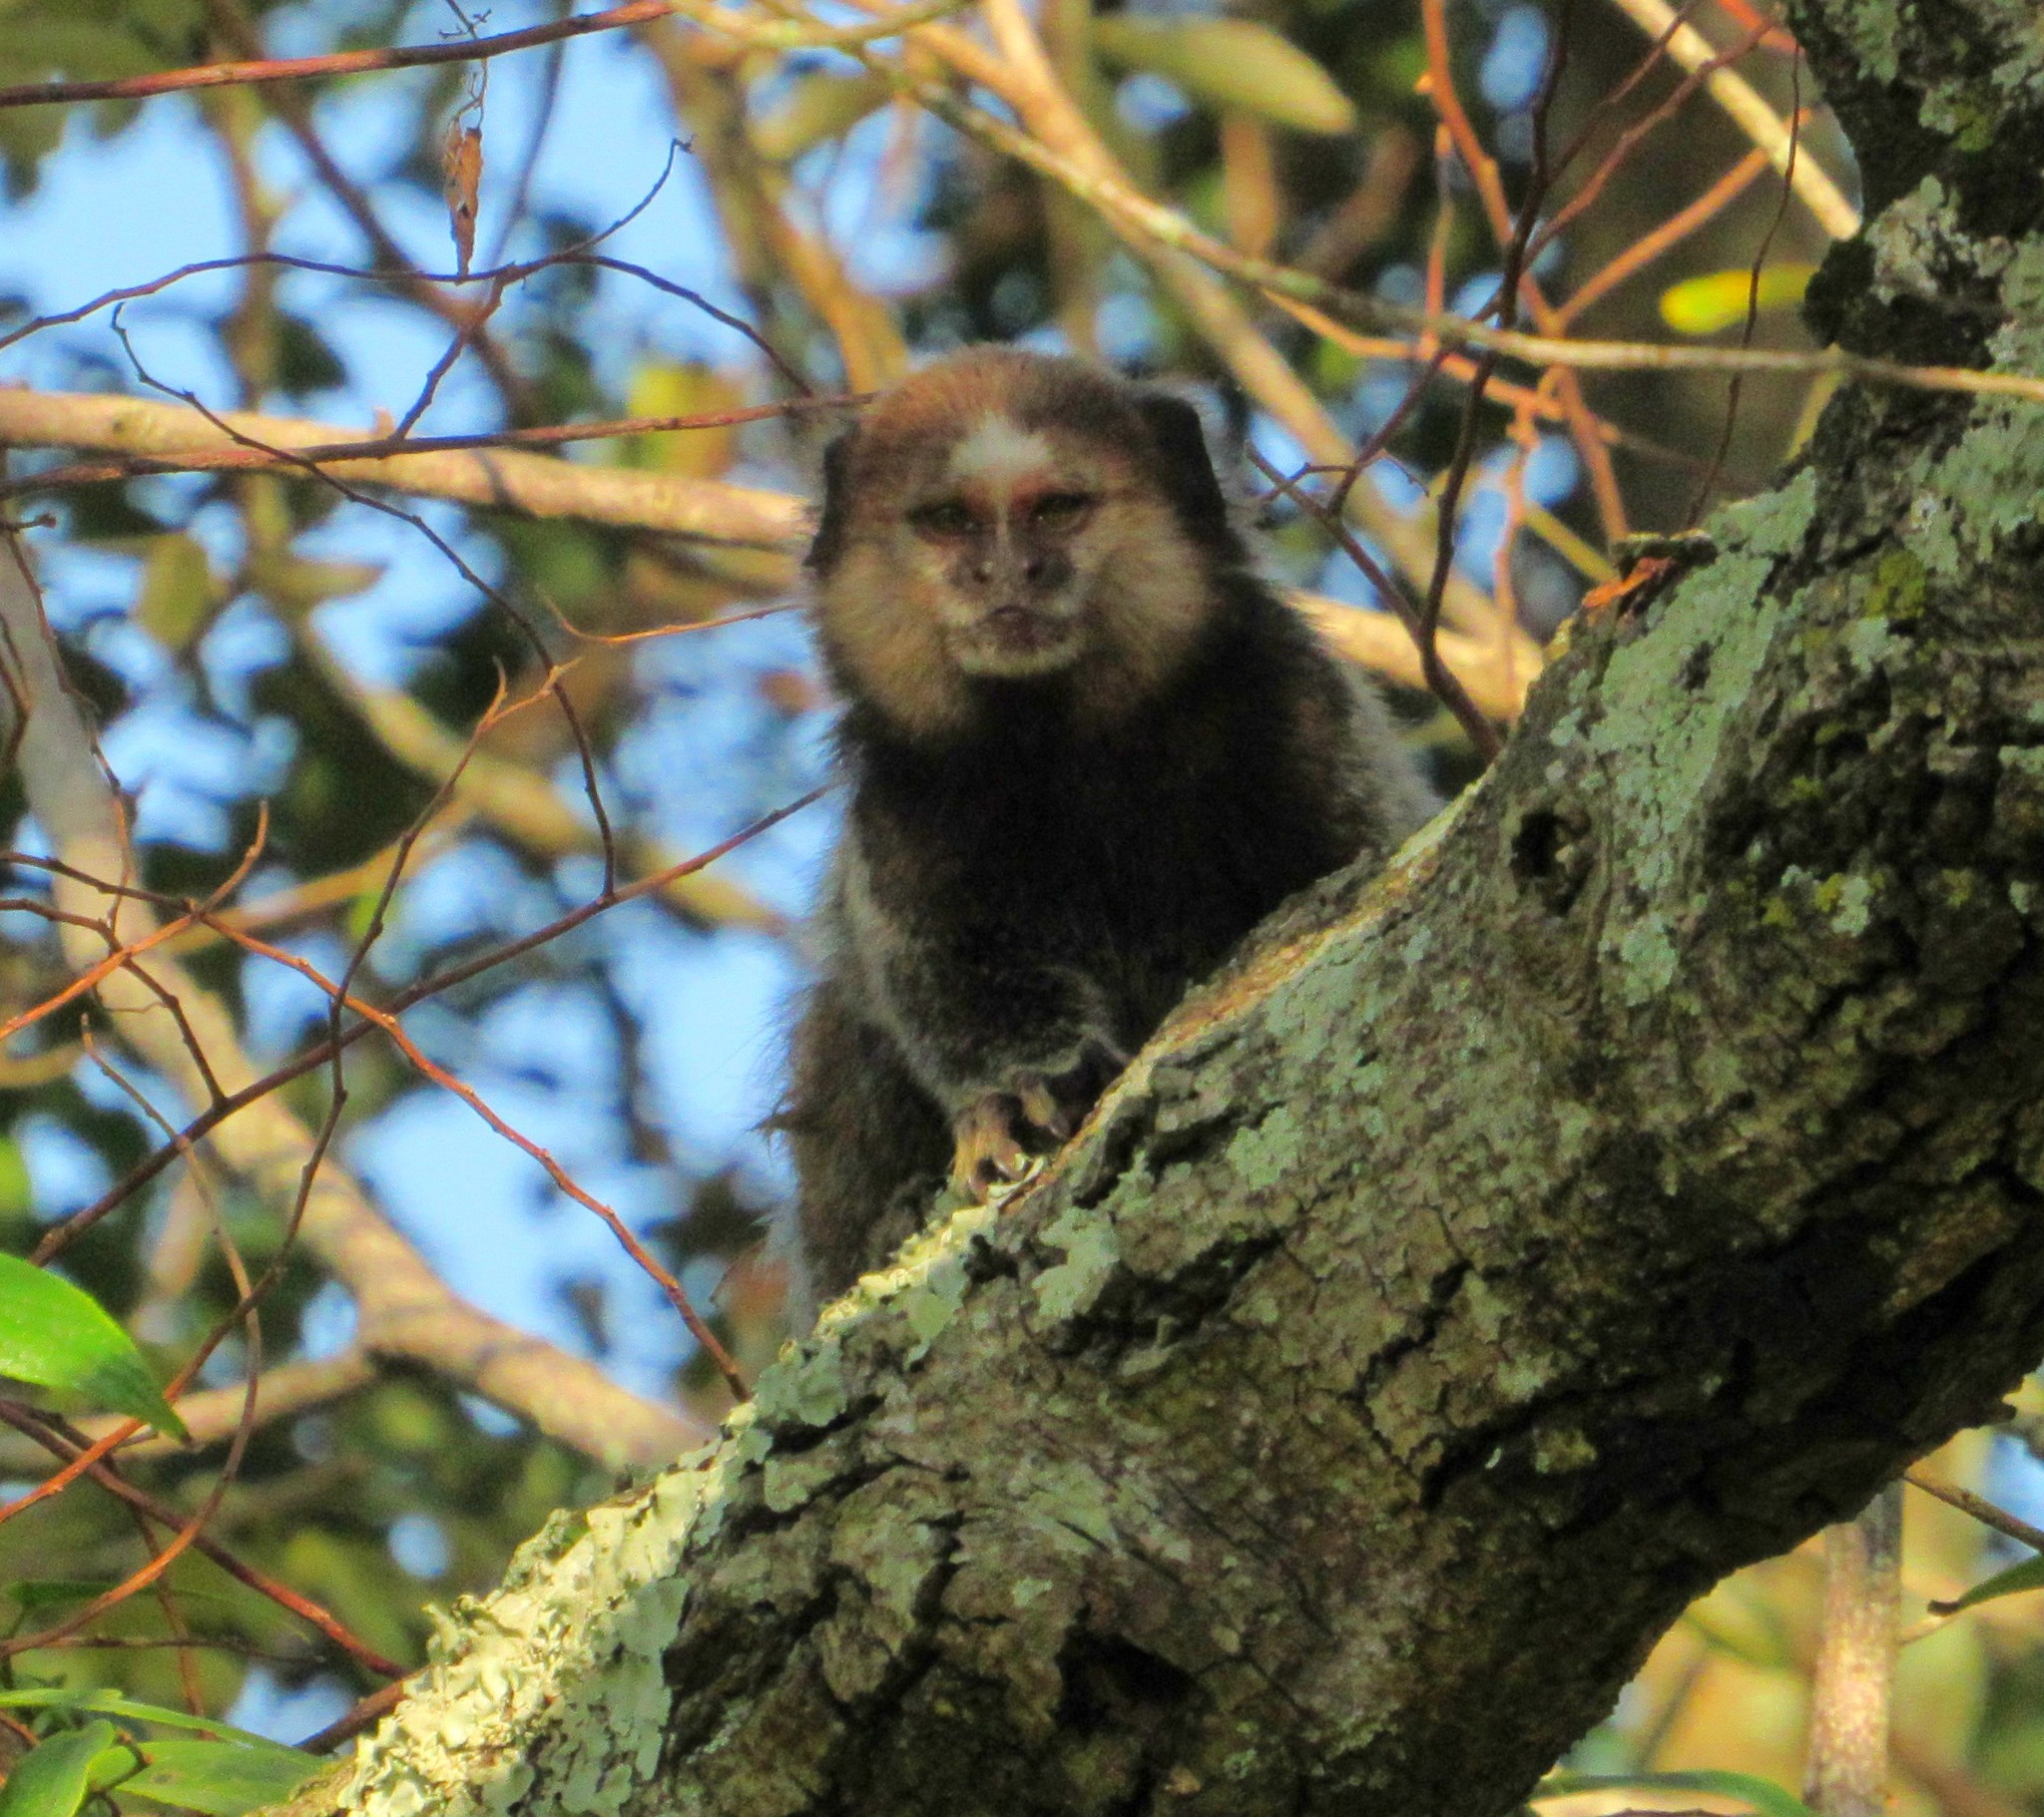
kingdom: Animalia
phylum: Chordata
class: Mammalia
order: Primates
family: Callitrichidae
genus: Callithrix
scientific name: Callithrix penicillata
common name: Black-tufted marmoset
